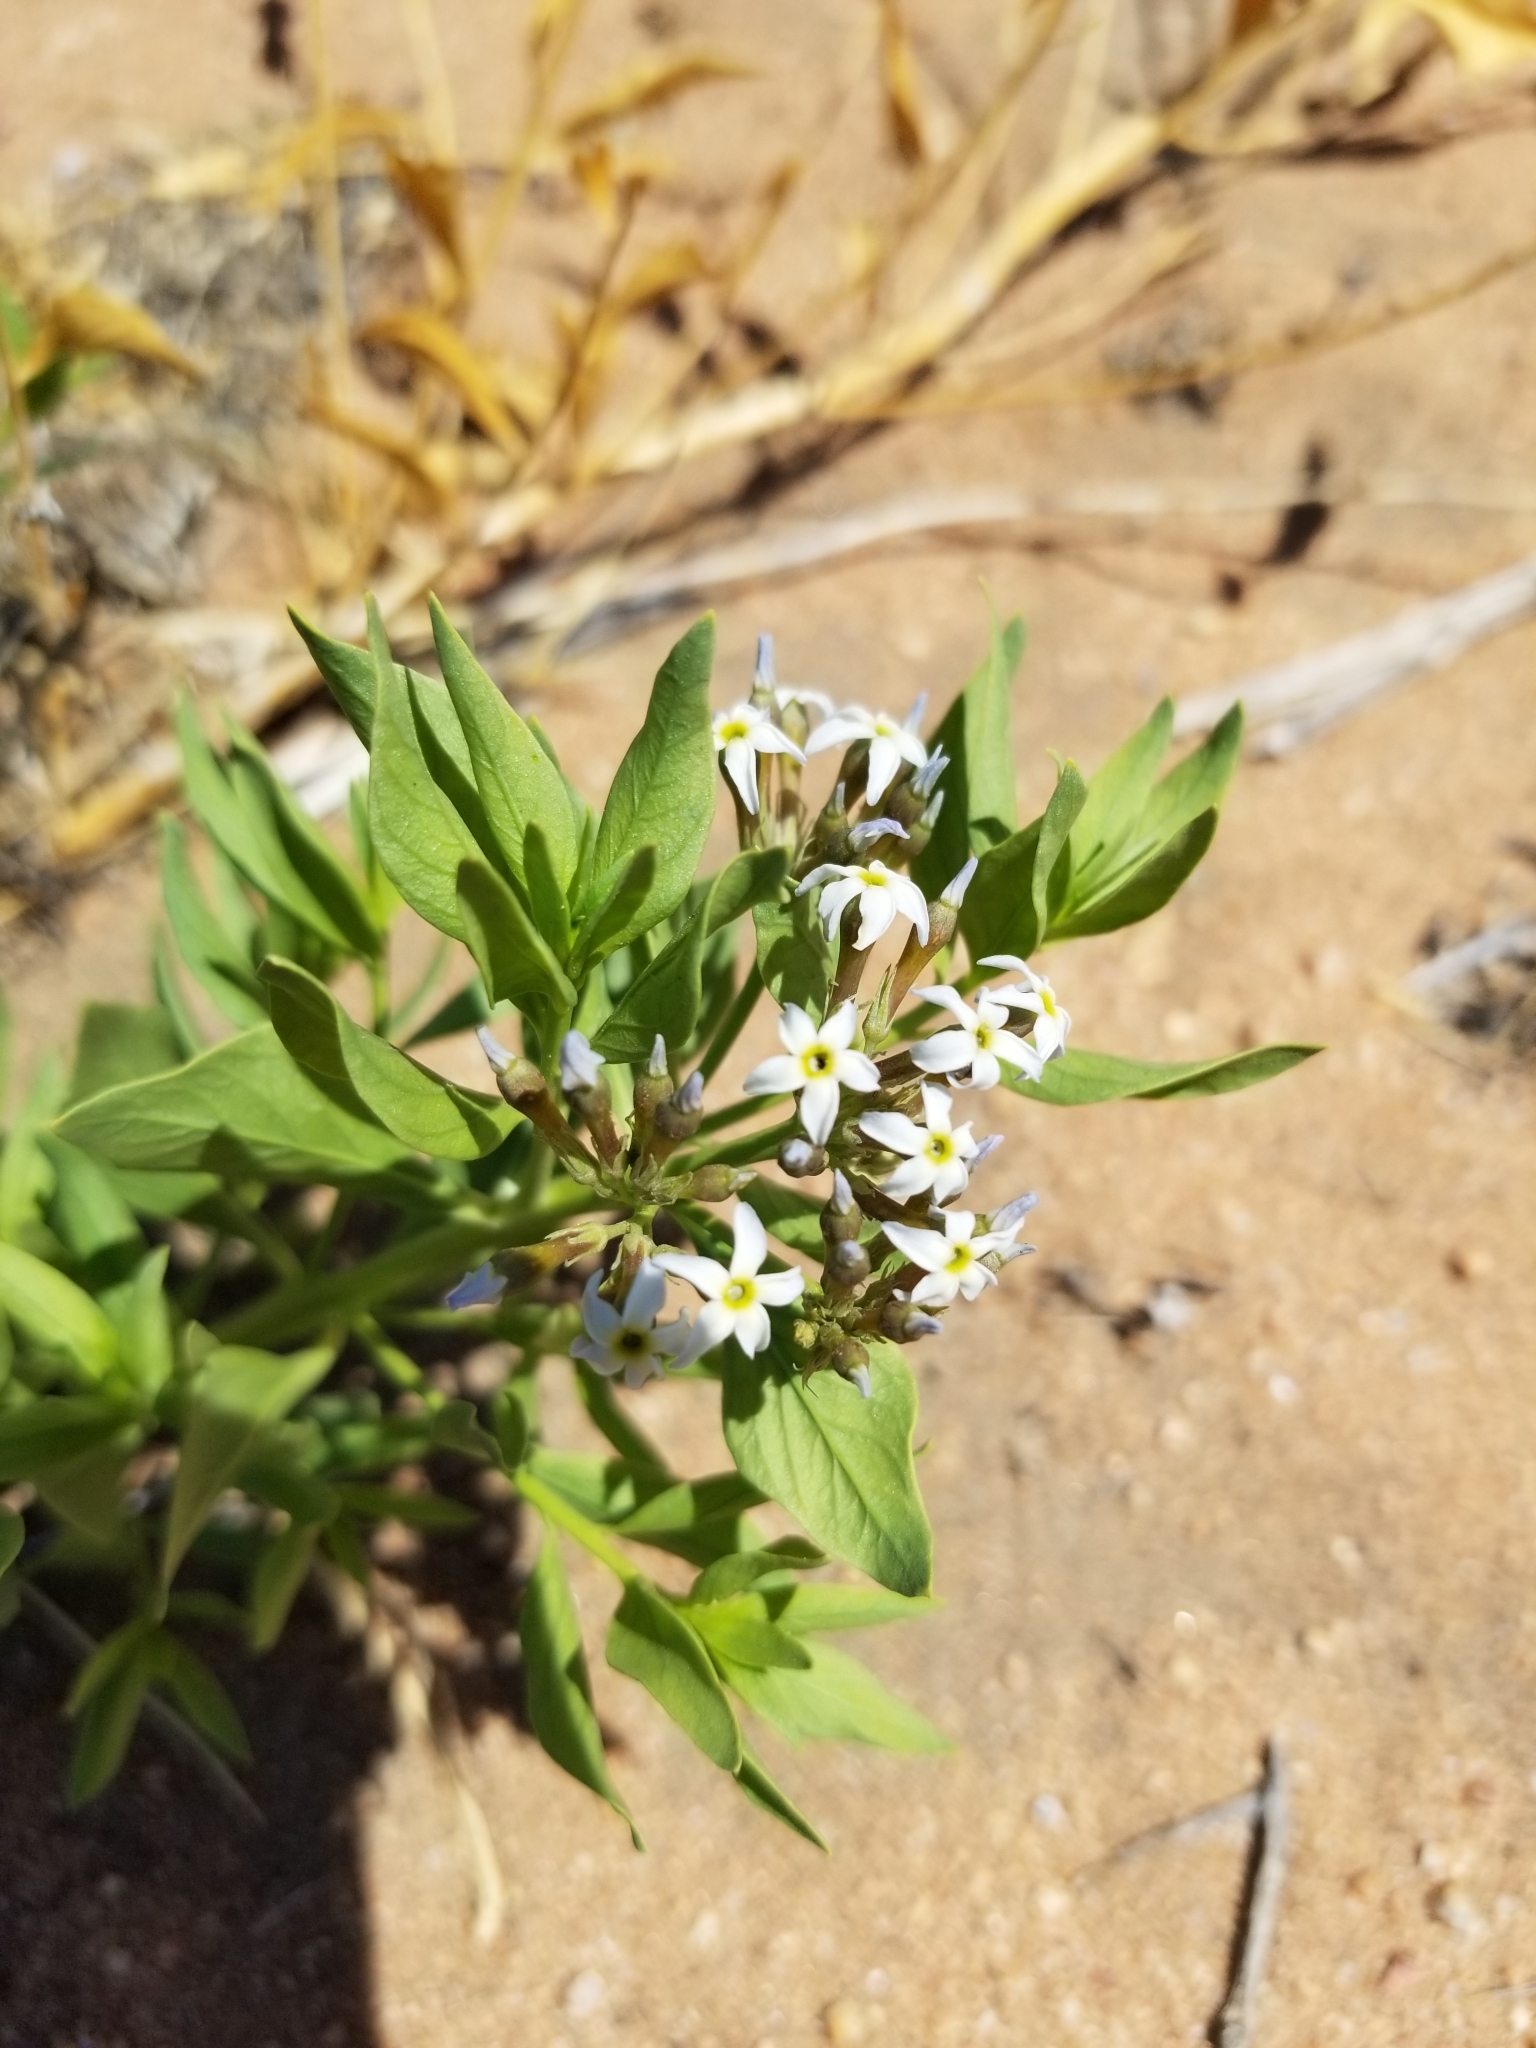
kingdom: Plantae
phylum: Tracheophyta
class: Magnoliopsida
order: Gentianales
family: Apocynaceae
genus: Amsonia
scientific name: Amsonia tomentosa
